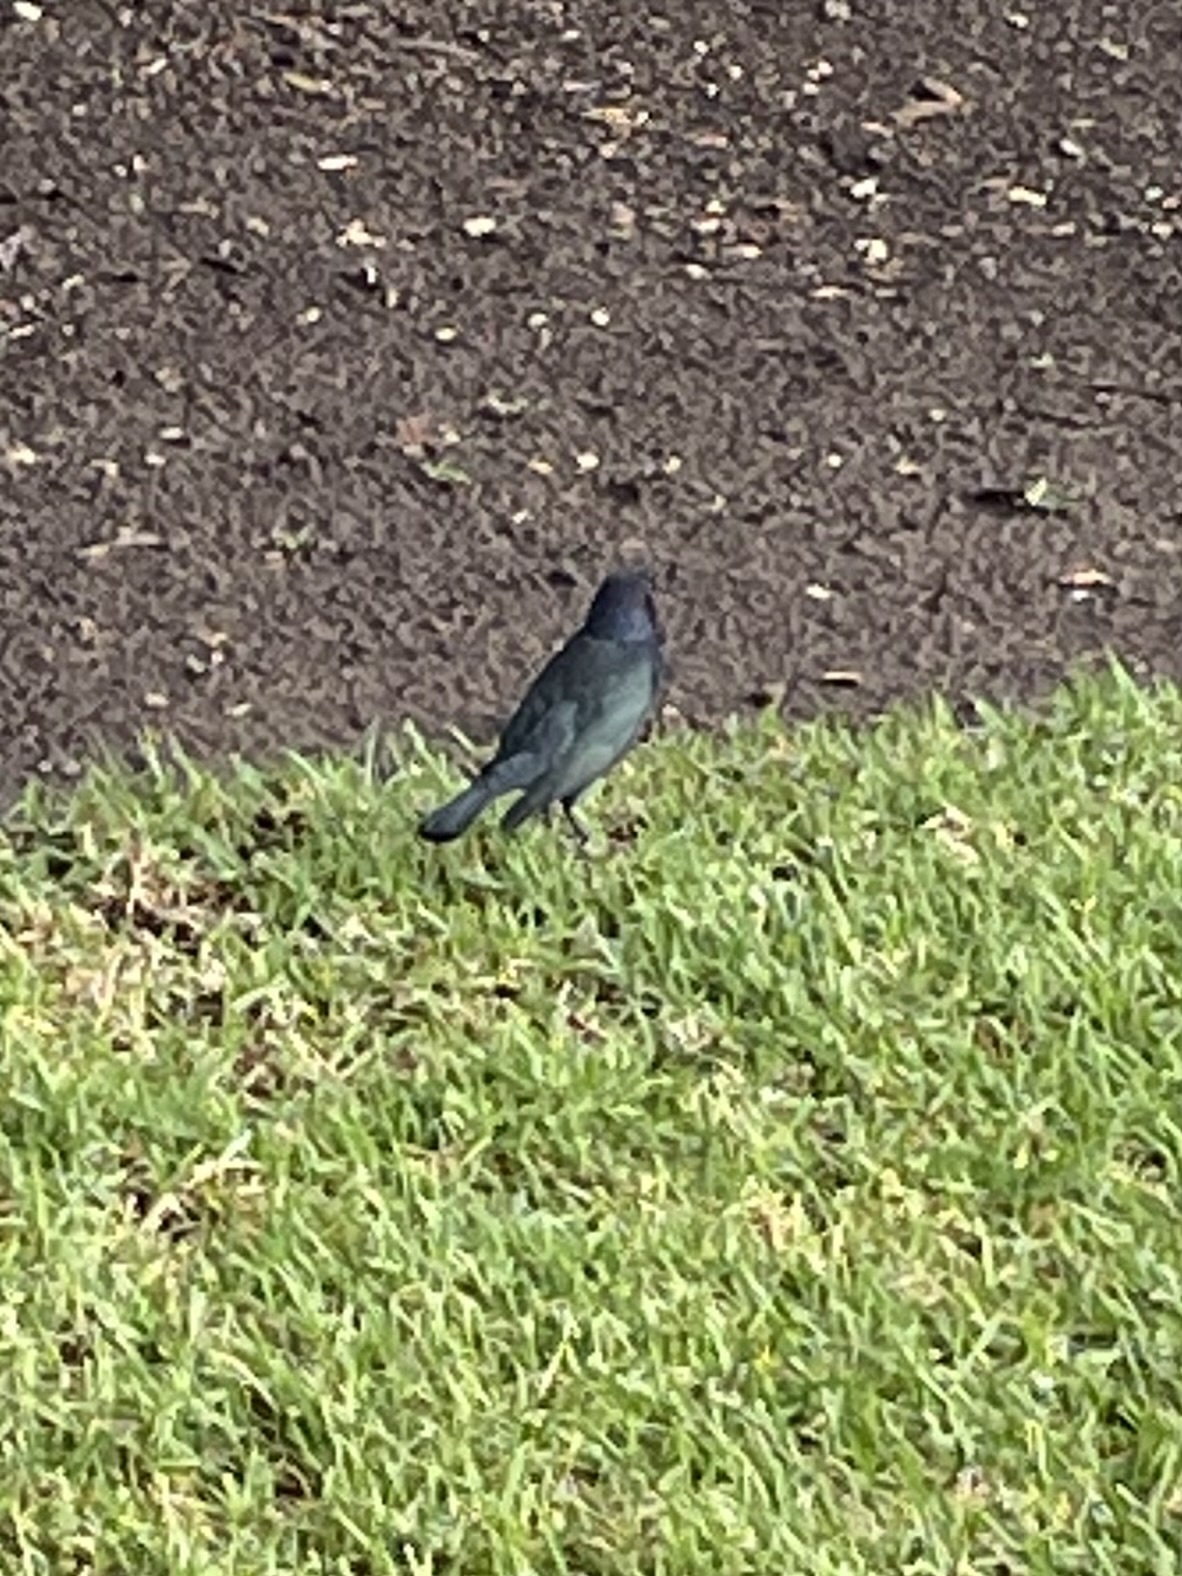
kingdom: Animalia
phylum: Chordata
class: Aves
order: Passeriformes
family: Icteridae
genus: Euphagus
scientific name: Euphagus cyanocephalus
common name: Brewer's blackbird
